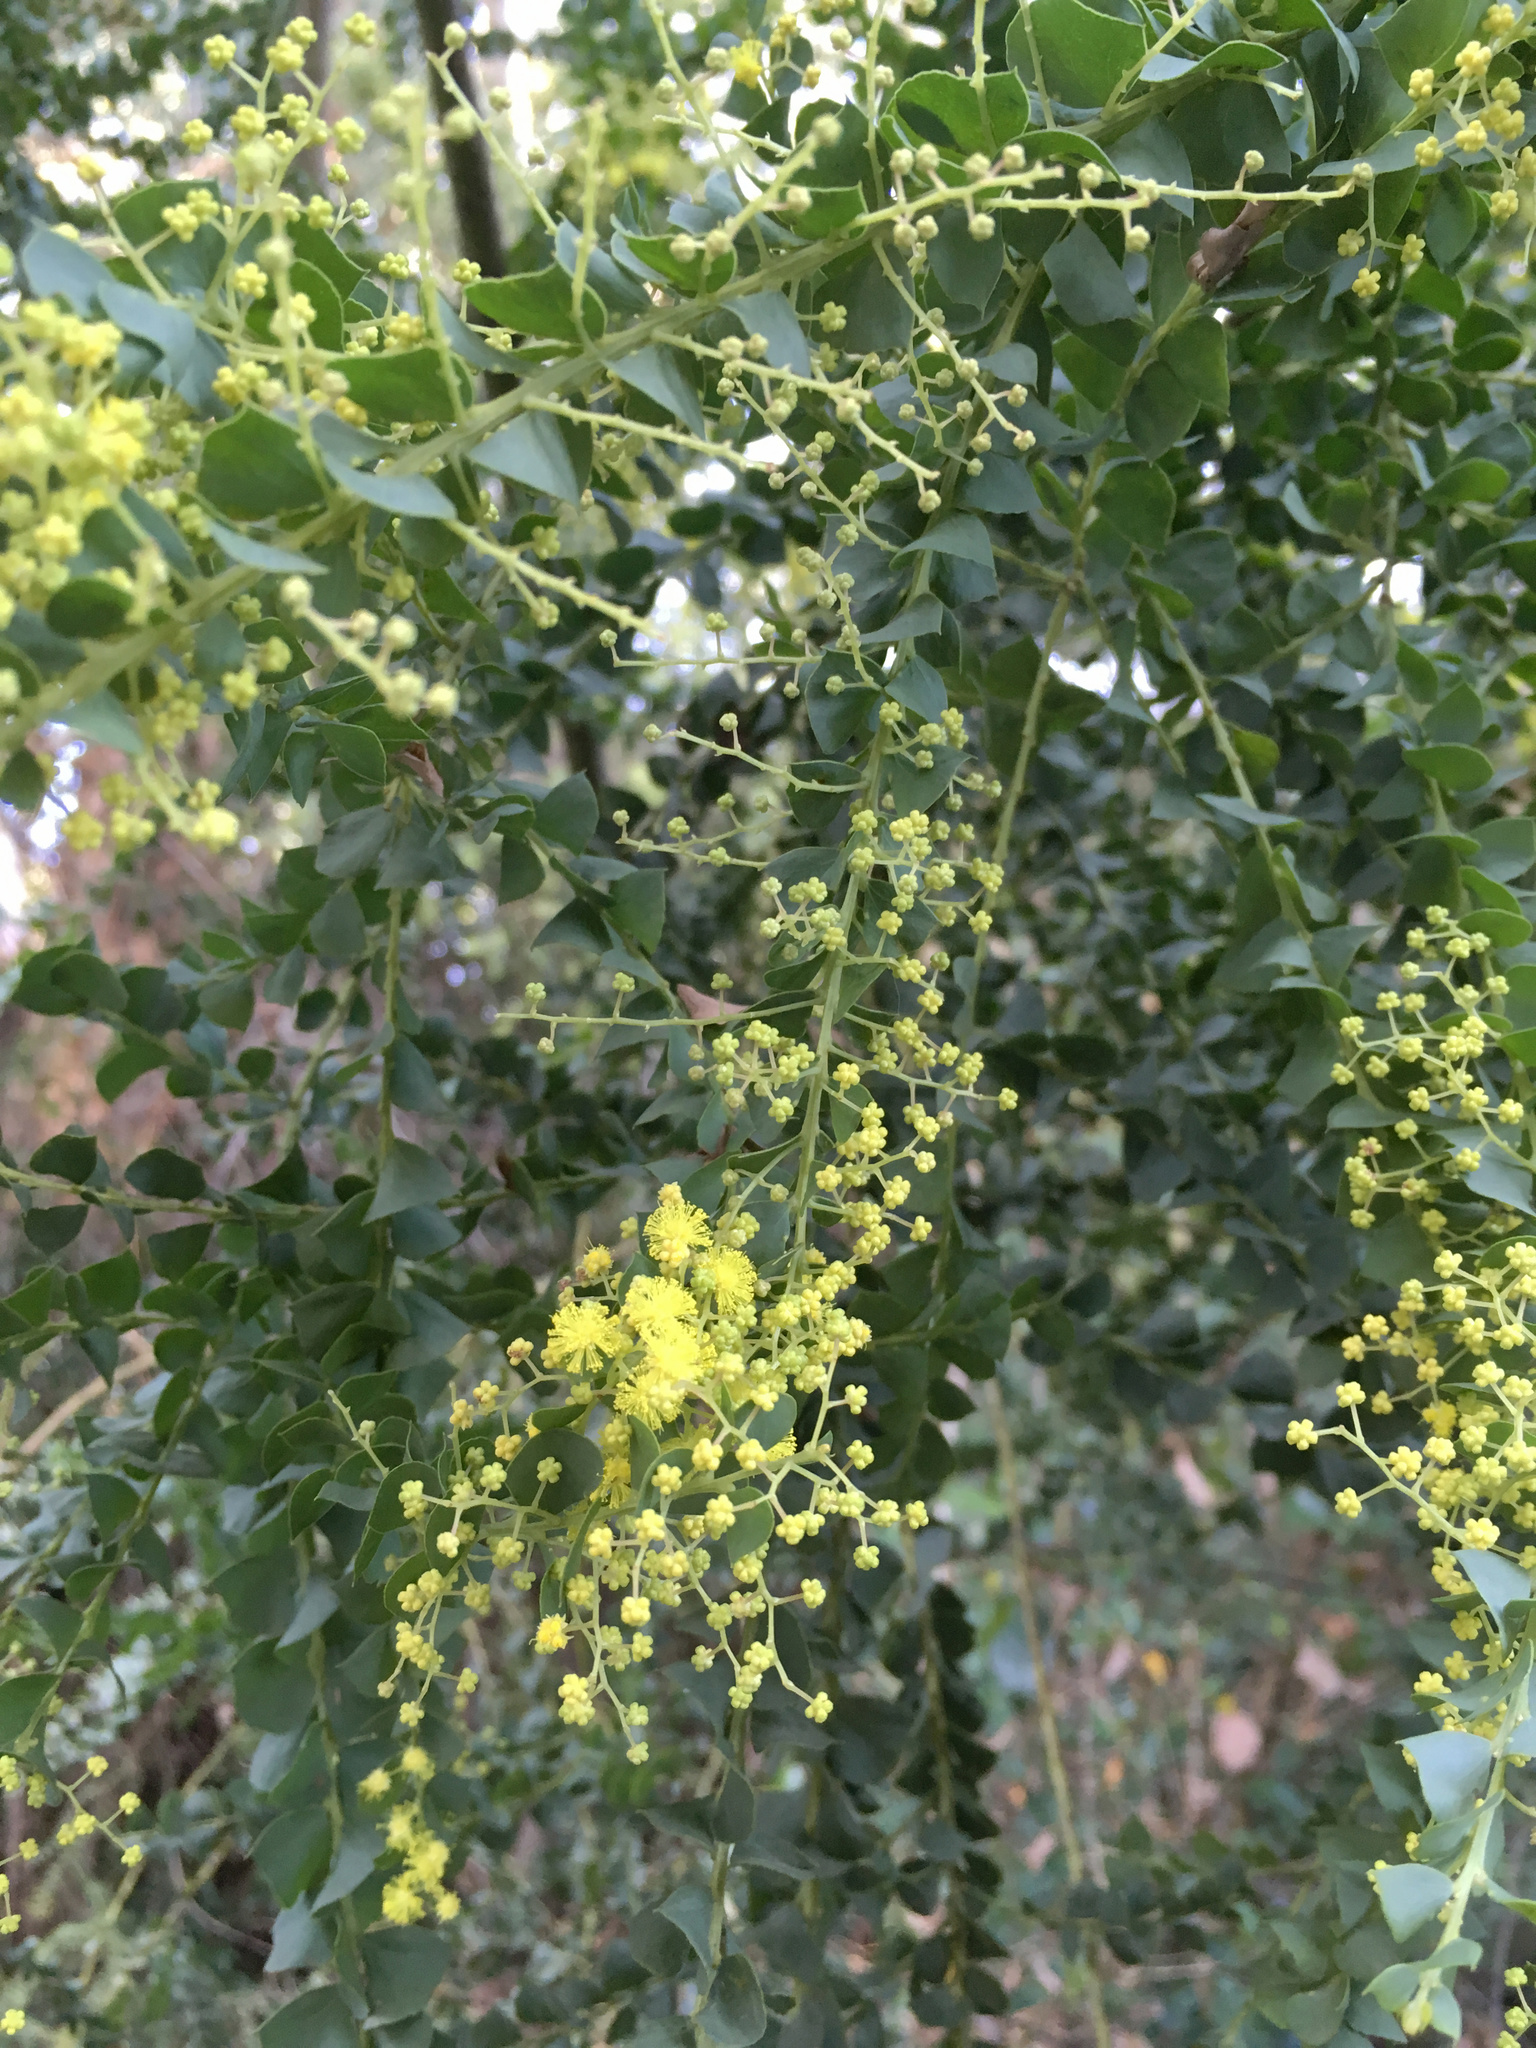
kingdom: Plantae
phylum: Tracheophyta
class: Magnoliopsida
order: Fabales
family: Fabaceae
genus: Acacia
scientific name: Acacia pravissima
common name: Tumut wattle
